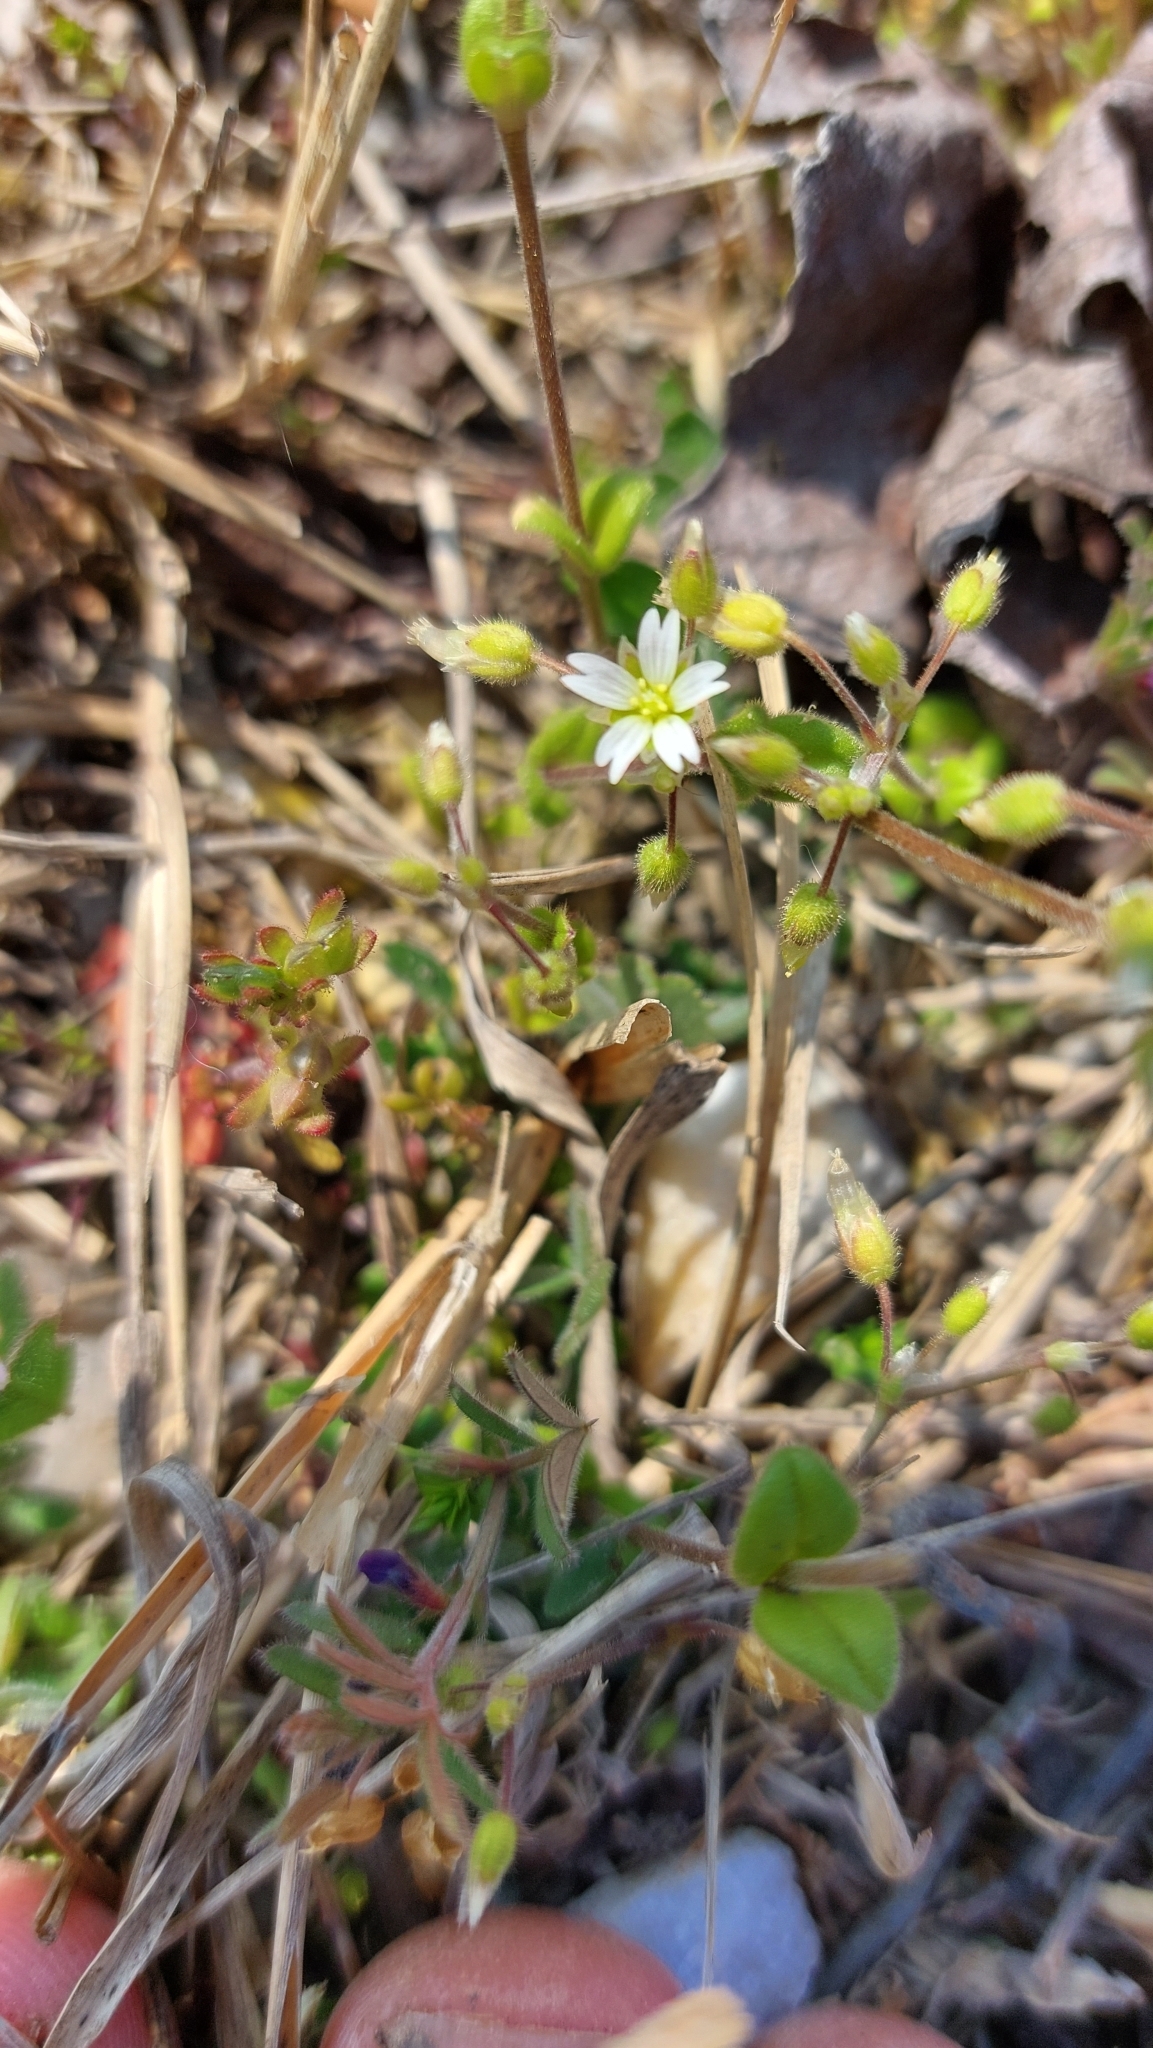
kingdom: Plantae
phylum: Tracheophyta
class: Magnoliopsida
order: Caryophyllales
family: Caryophyllaceae
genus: Cerastium
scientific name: Cerastium semidecandrum
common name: Little mouse-ear
